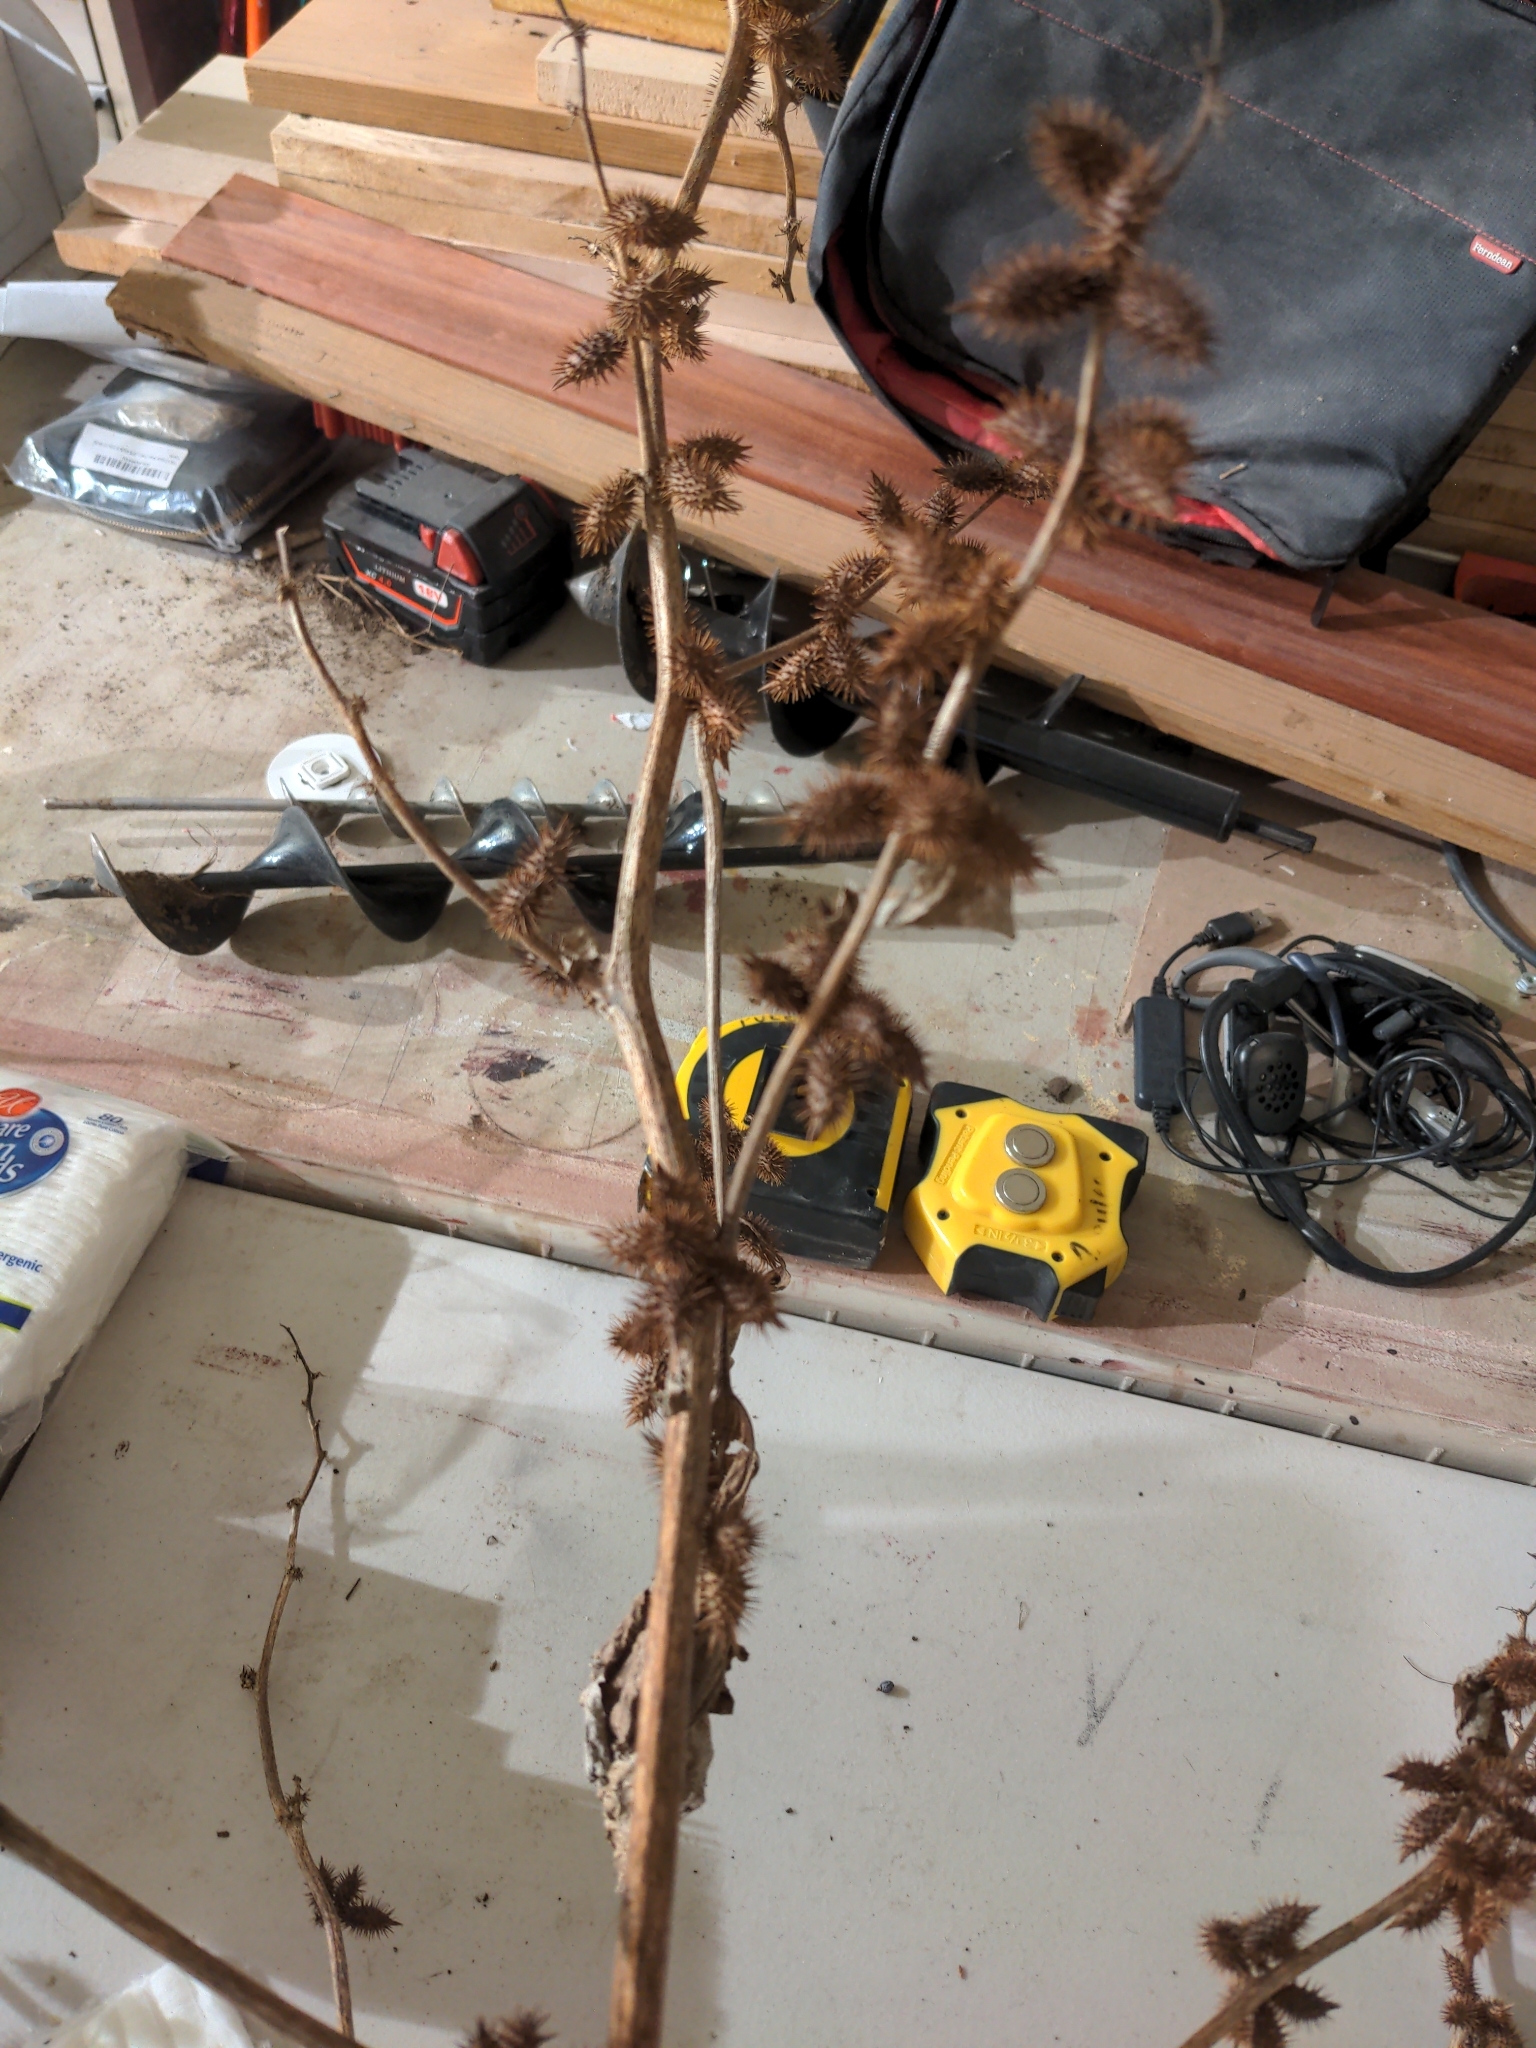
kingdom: Plantae
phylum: Tracheophyta
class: Magnoliopsida
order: Asterales
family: Asteraceae
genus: Xanthium
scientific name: Xanthium strumarium
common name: Rough cocklebur
